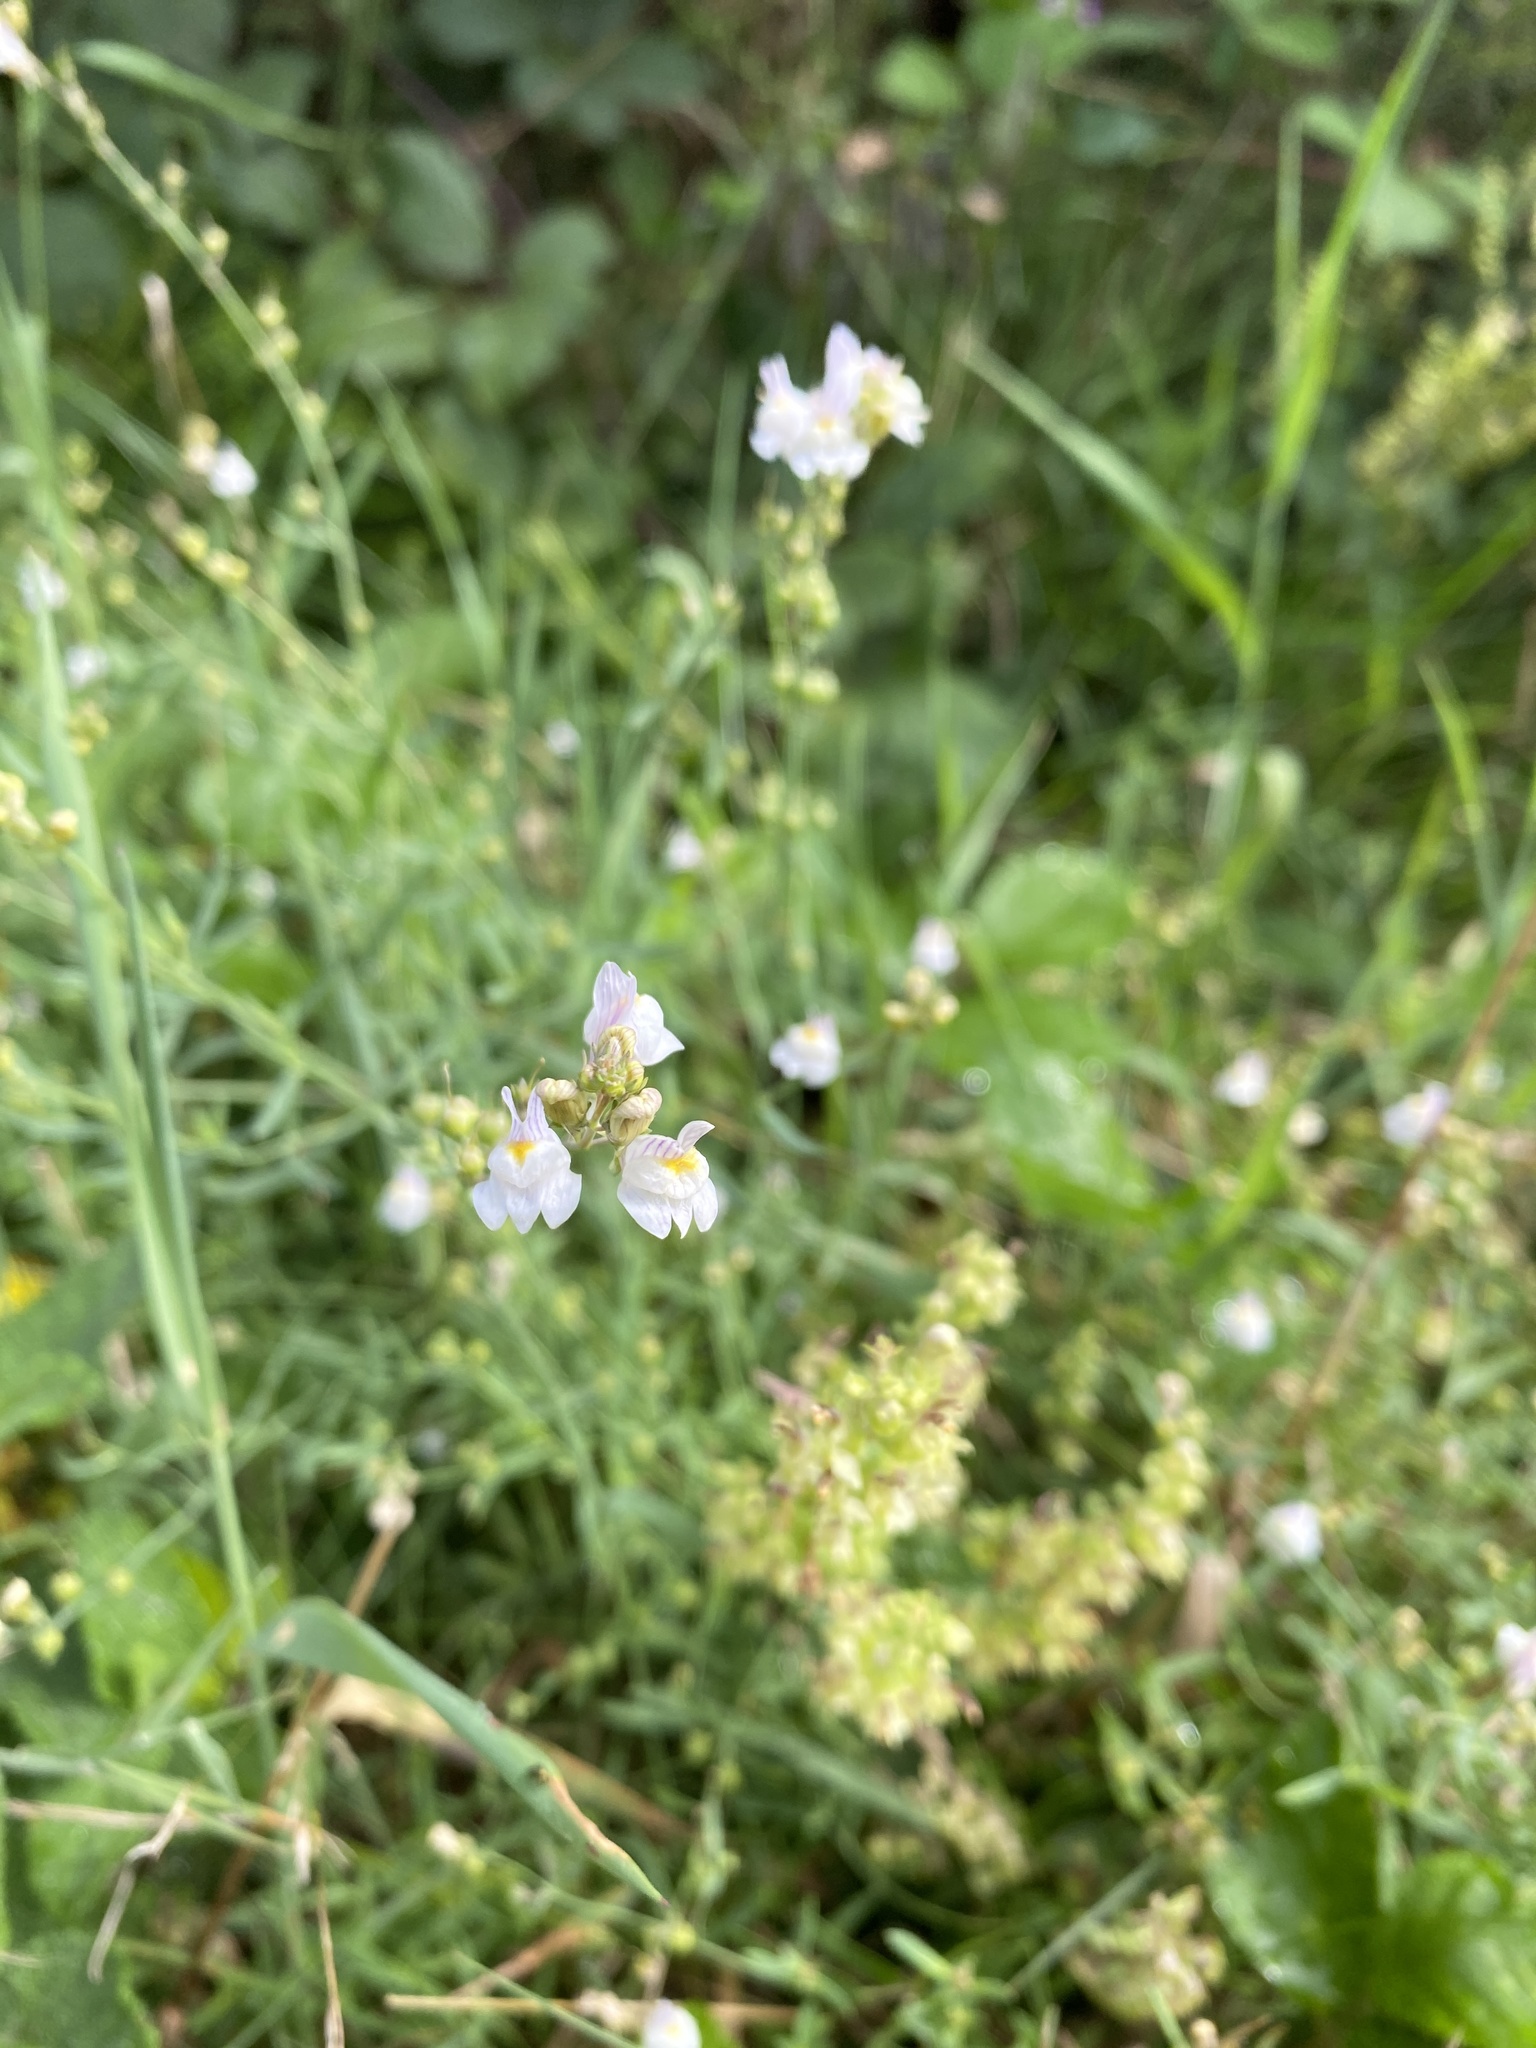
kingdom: Plantae
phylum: Tracheophyta
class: Magnoliopsida
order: Lamiales
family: Plantaginaceae
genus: Linaria
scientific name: Linaria repens
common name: Pale toadflax
